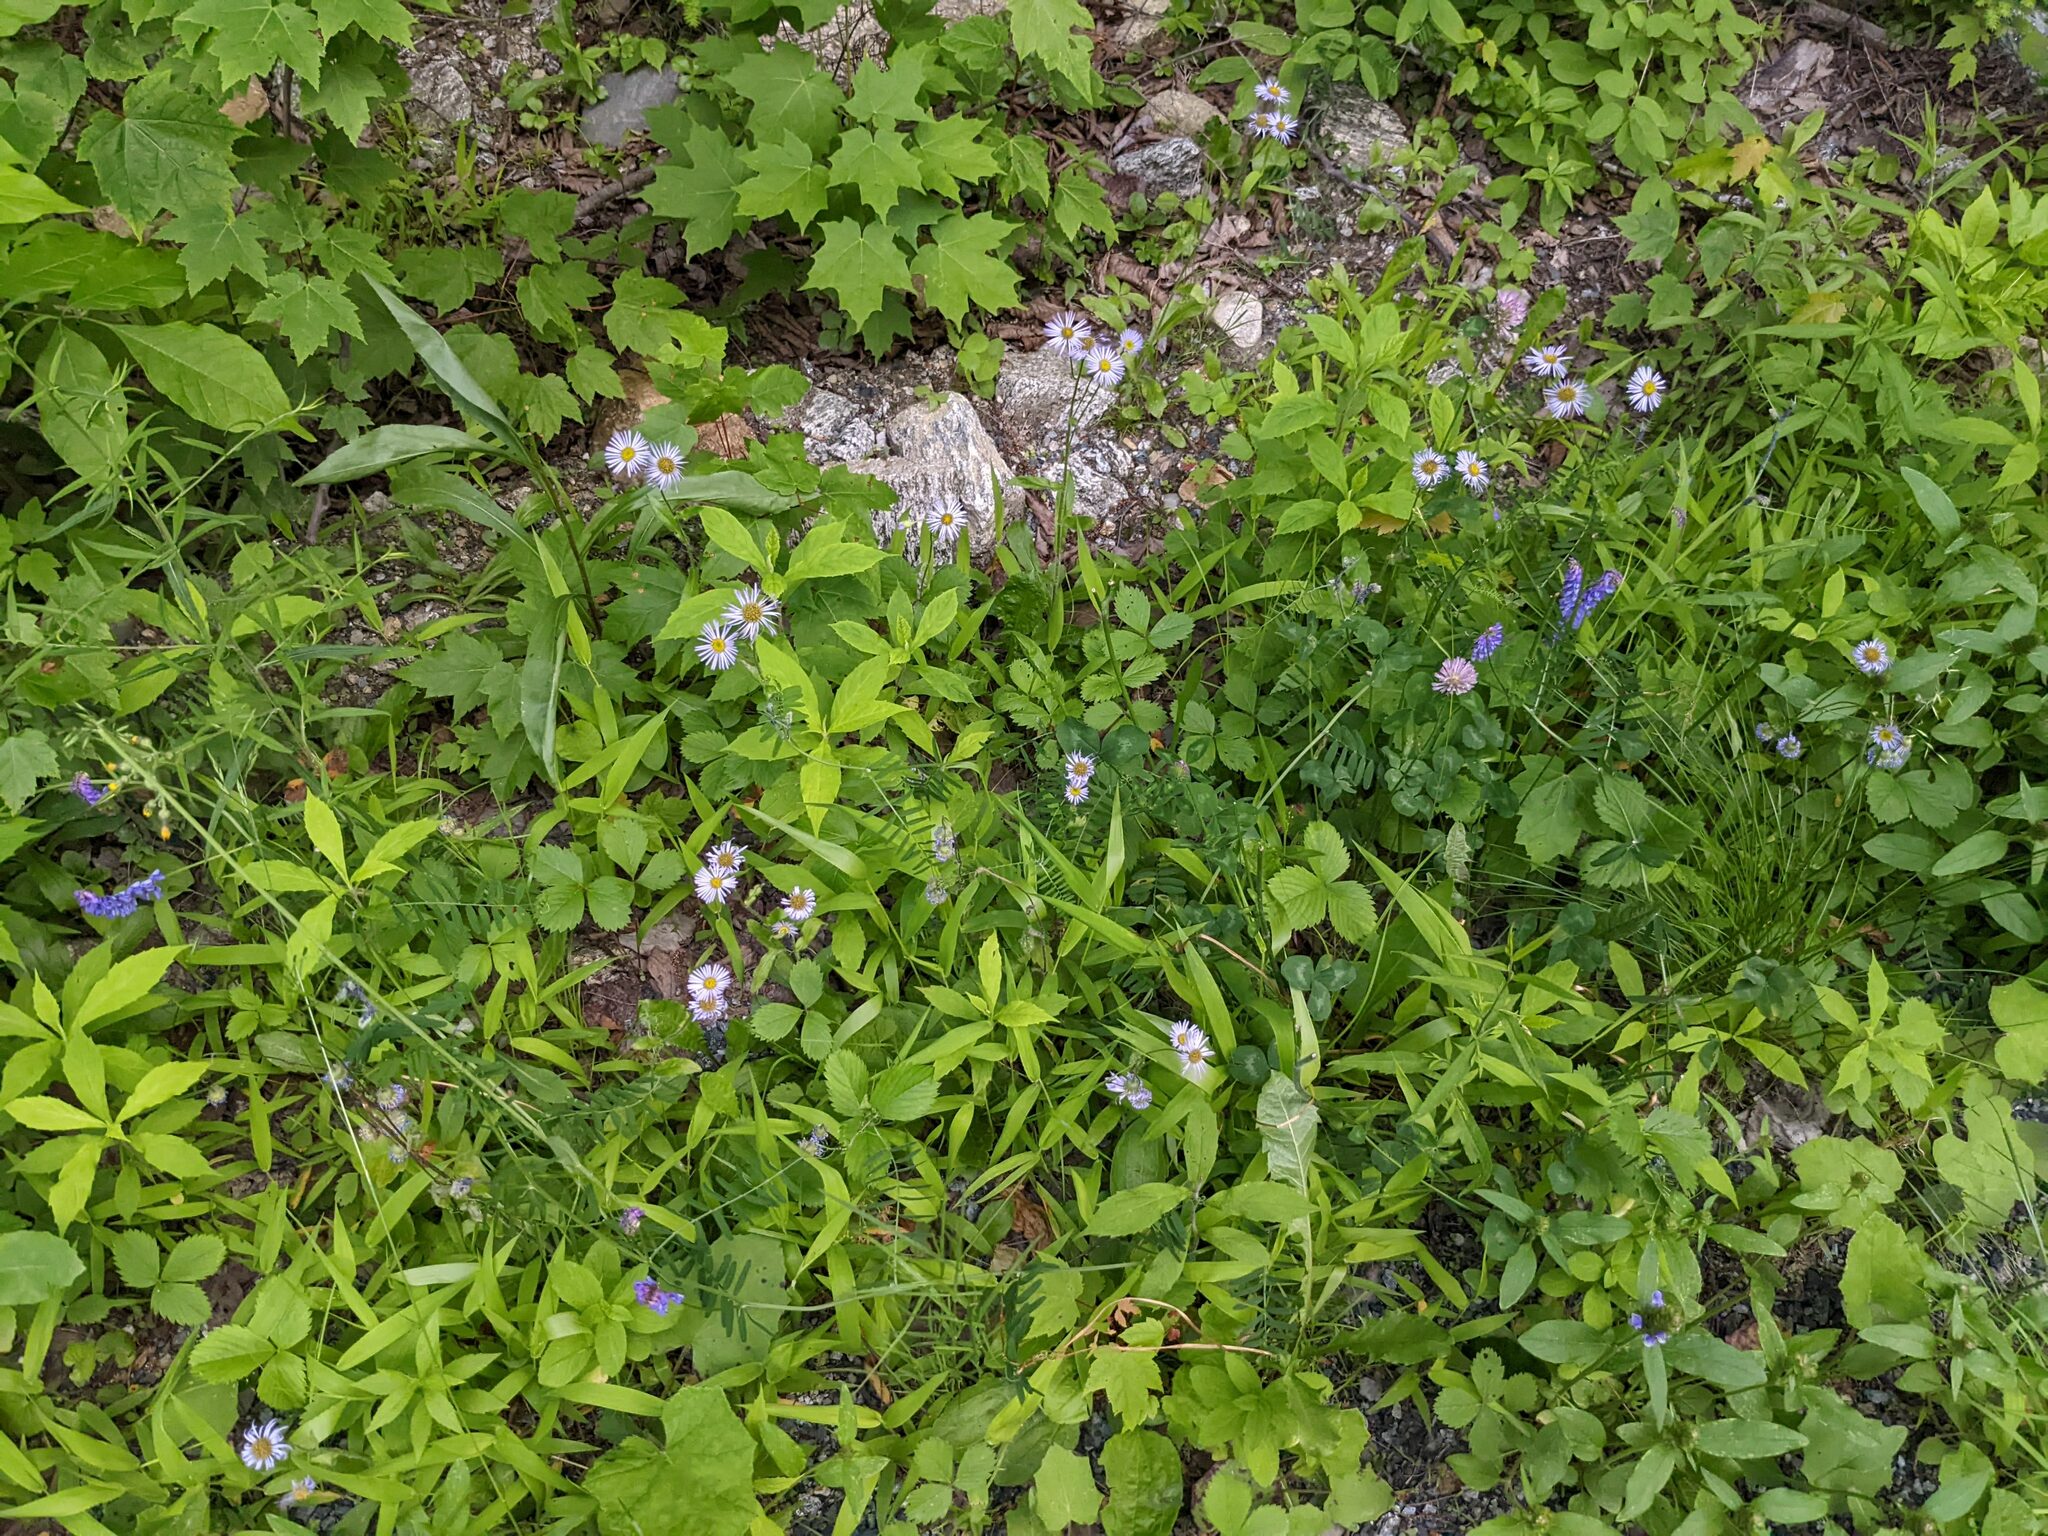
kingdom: Plantae
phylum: Tracheophyta
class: Magnoliopsida
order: Asterales
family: Asteraceae
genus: Erigeron
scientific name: Erigeron pulchellus
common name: Hairy fleabane
